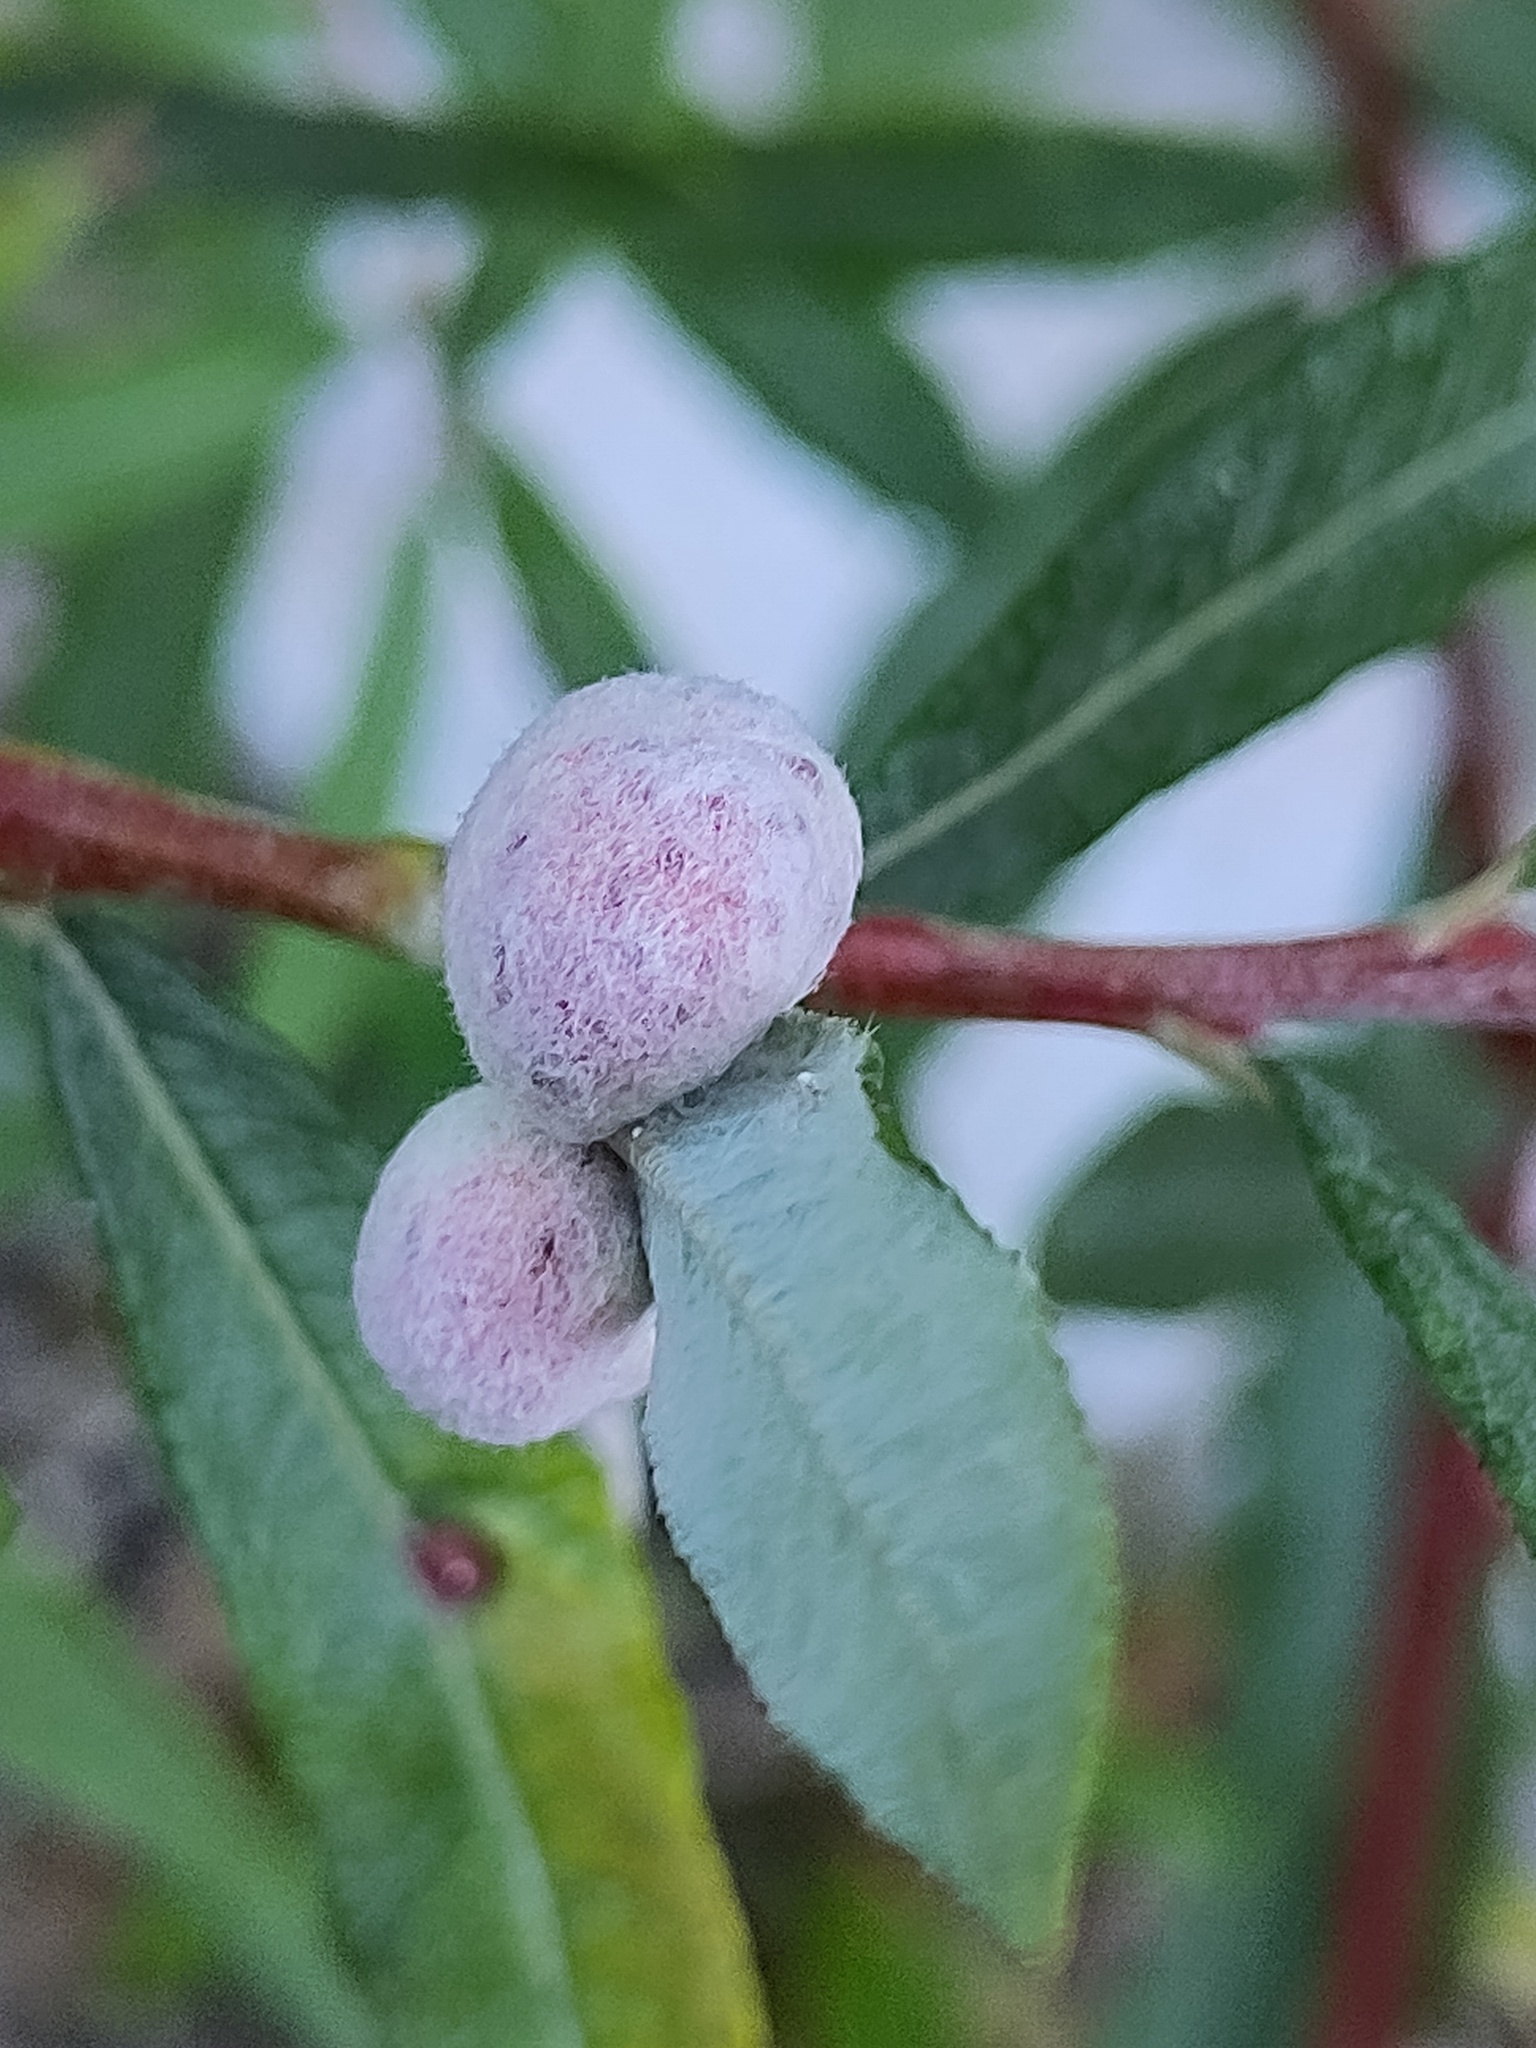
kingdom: Animalia
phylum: Arthropoda
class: Insecta
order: Hymenoptera
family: Tenthredinidae
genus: Euura
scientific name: Euura kriechbaumeri
